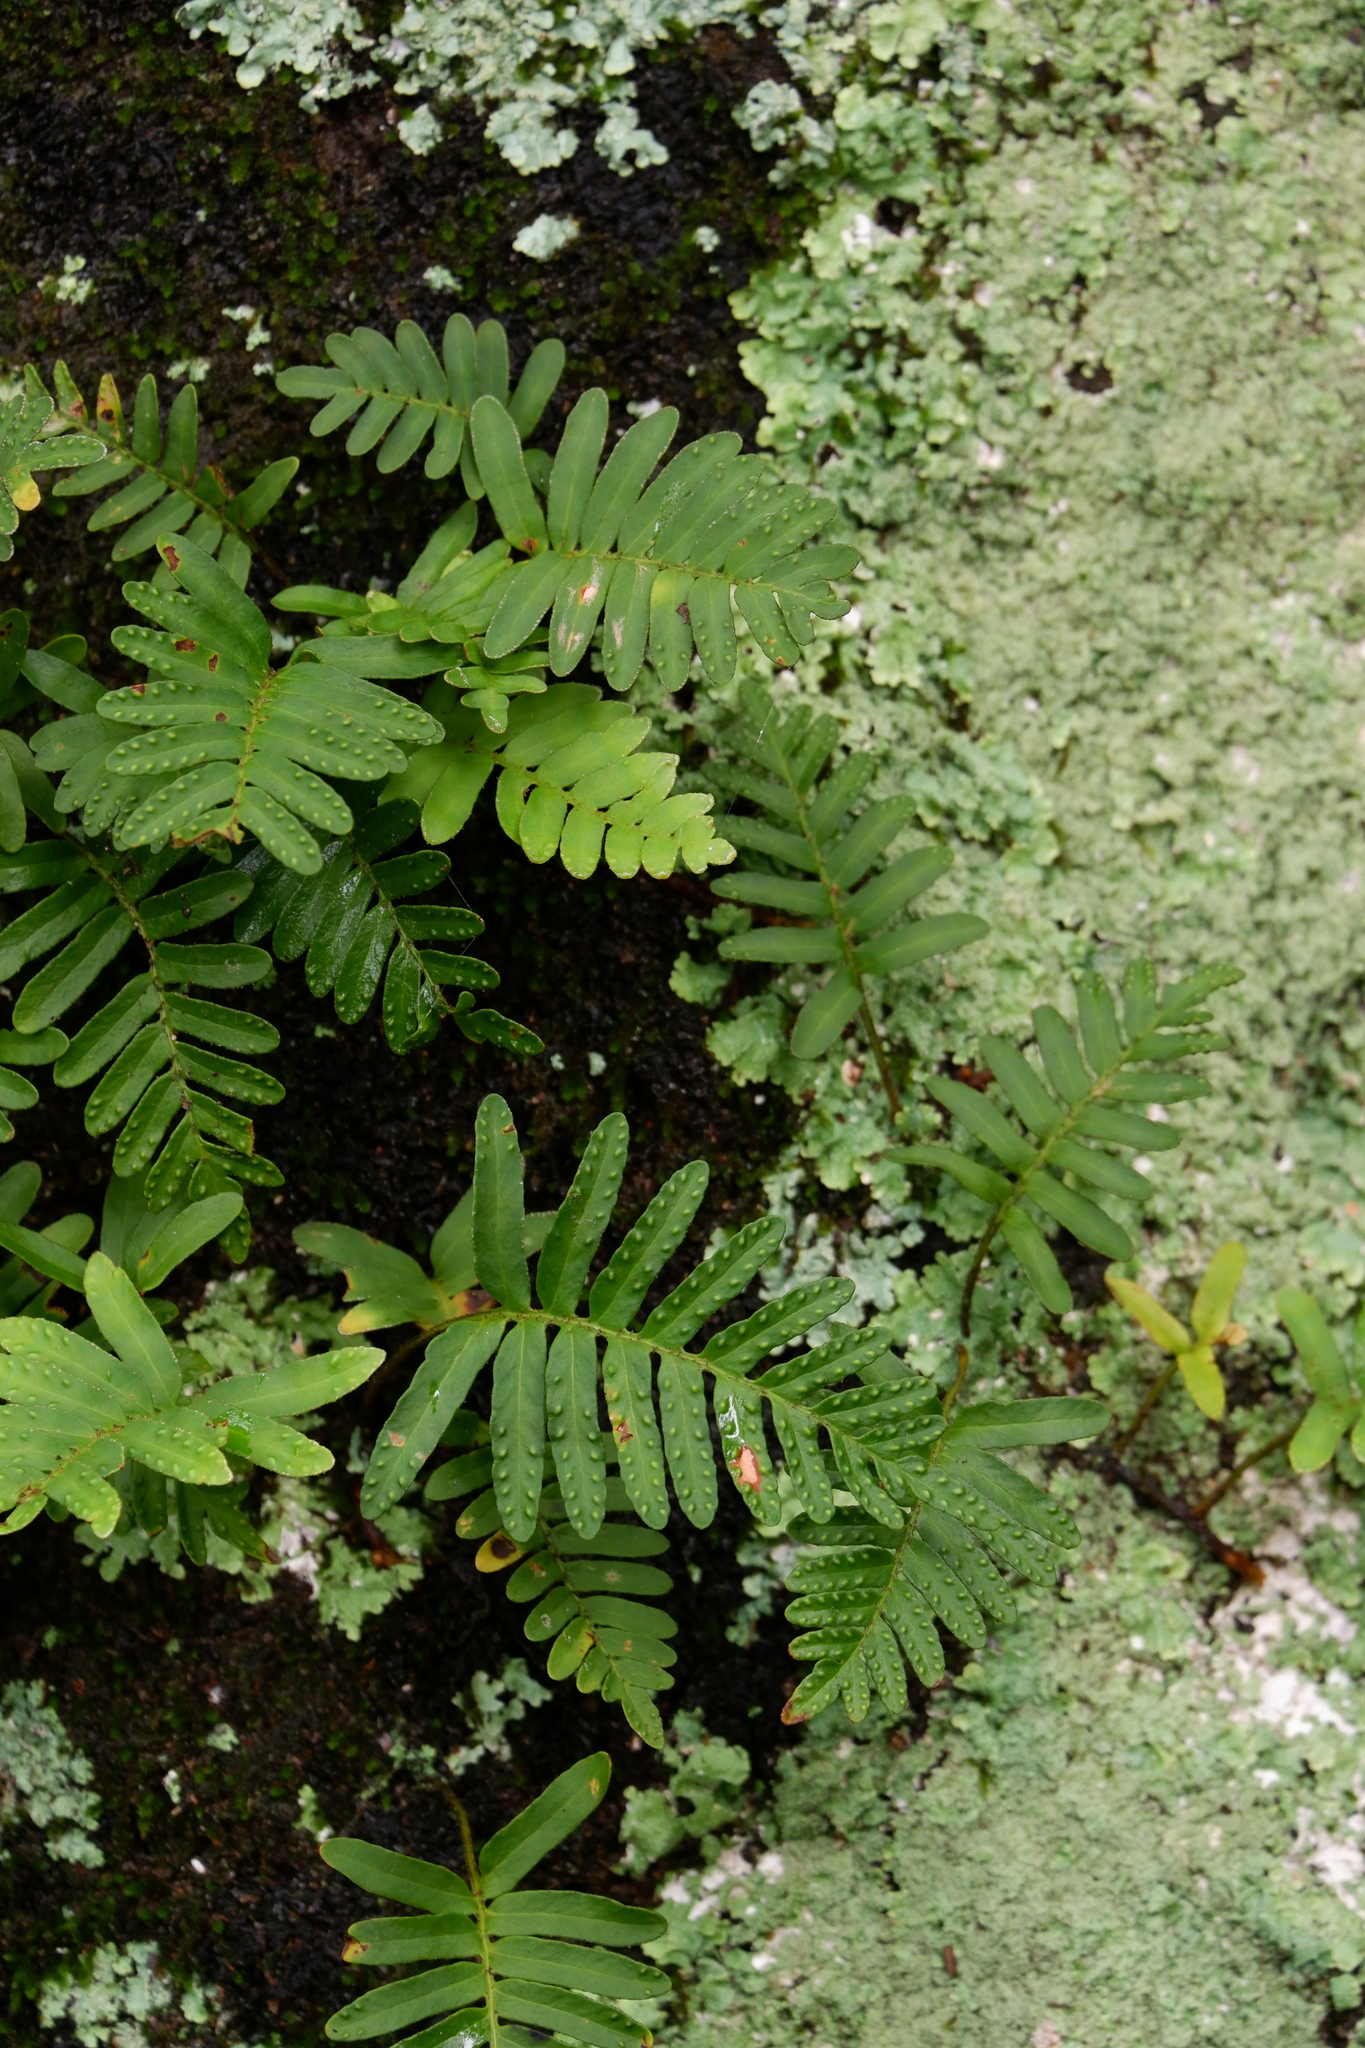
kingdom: Plantae
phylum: Tracheophyta
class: Polypodiopsida
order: Polypodiales
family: Polypodiaceae
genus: Pleopeltis
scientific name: Pleopeltis michauxiana
